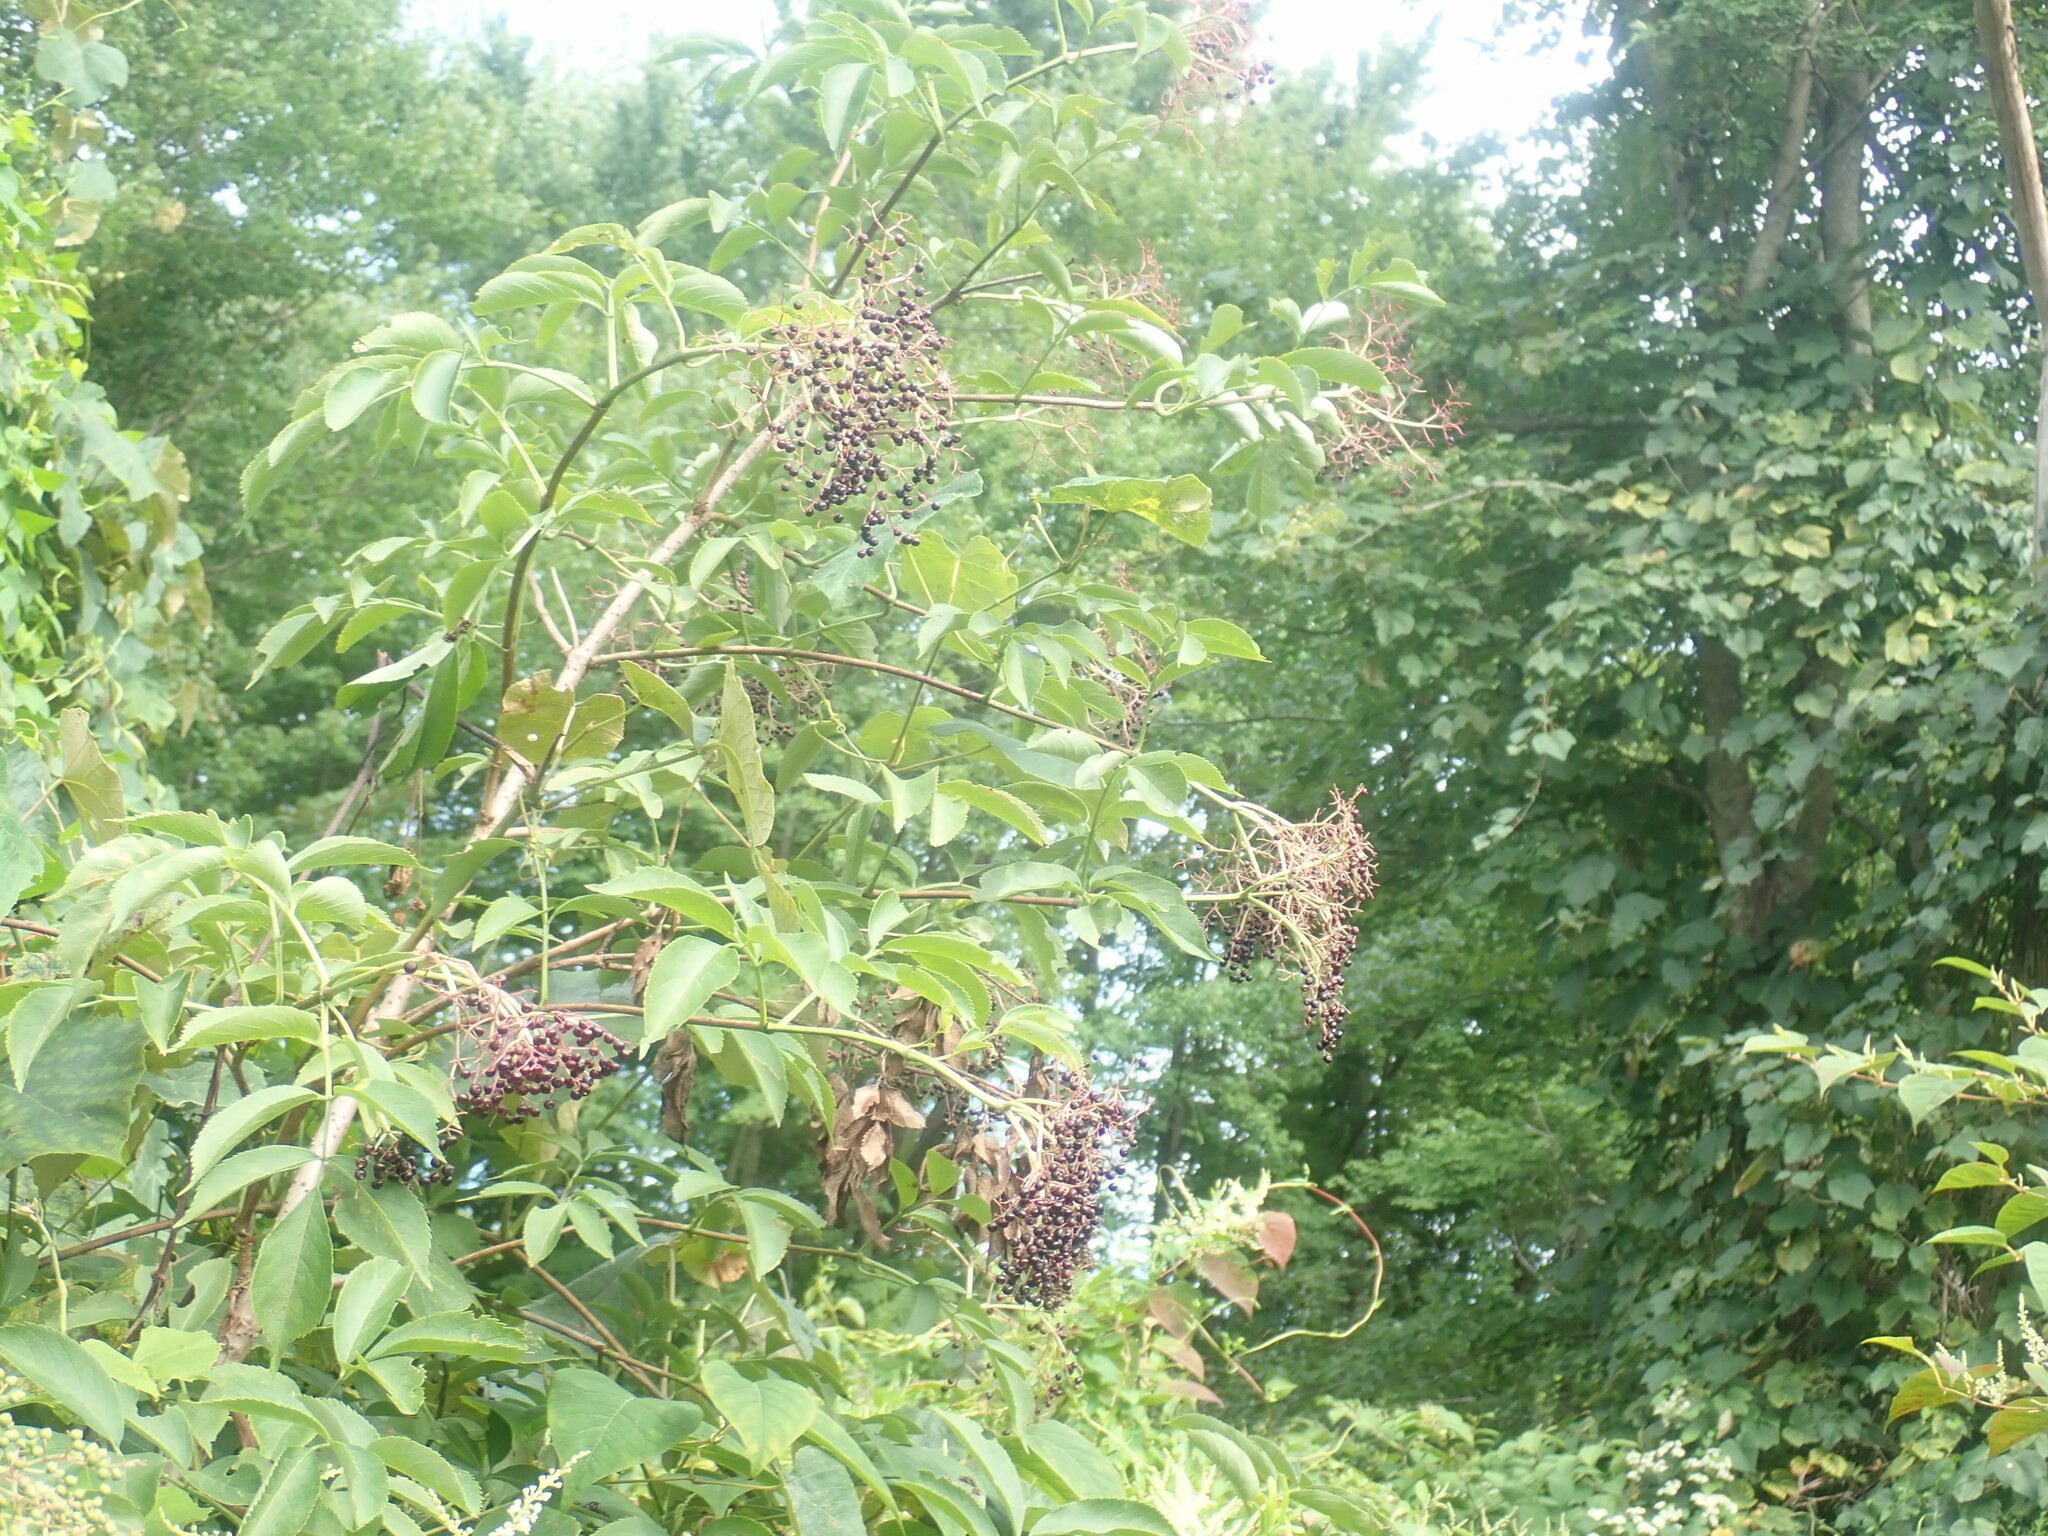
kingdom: Plantae
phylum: Tracheophyta
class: Magnoliopsida
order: Dipsacales
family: Viburnaceae
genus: Sambucus
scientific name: Sambucus canadensis
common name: American elder
